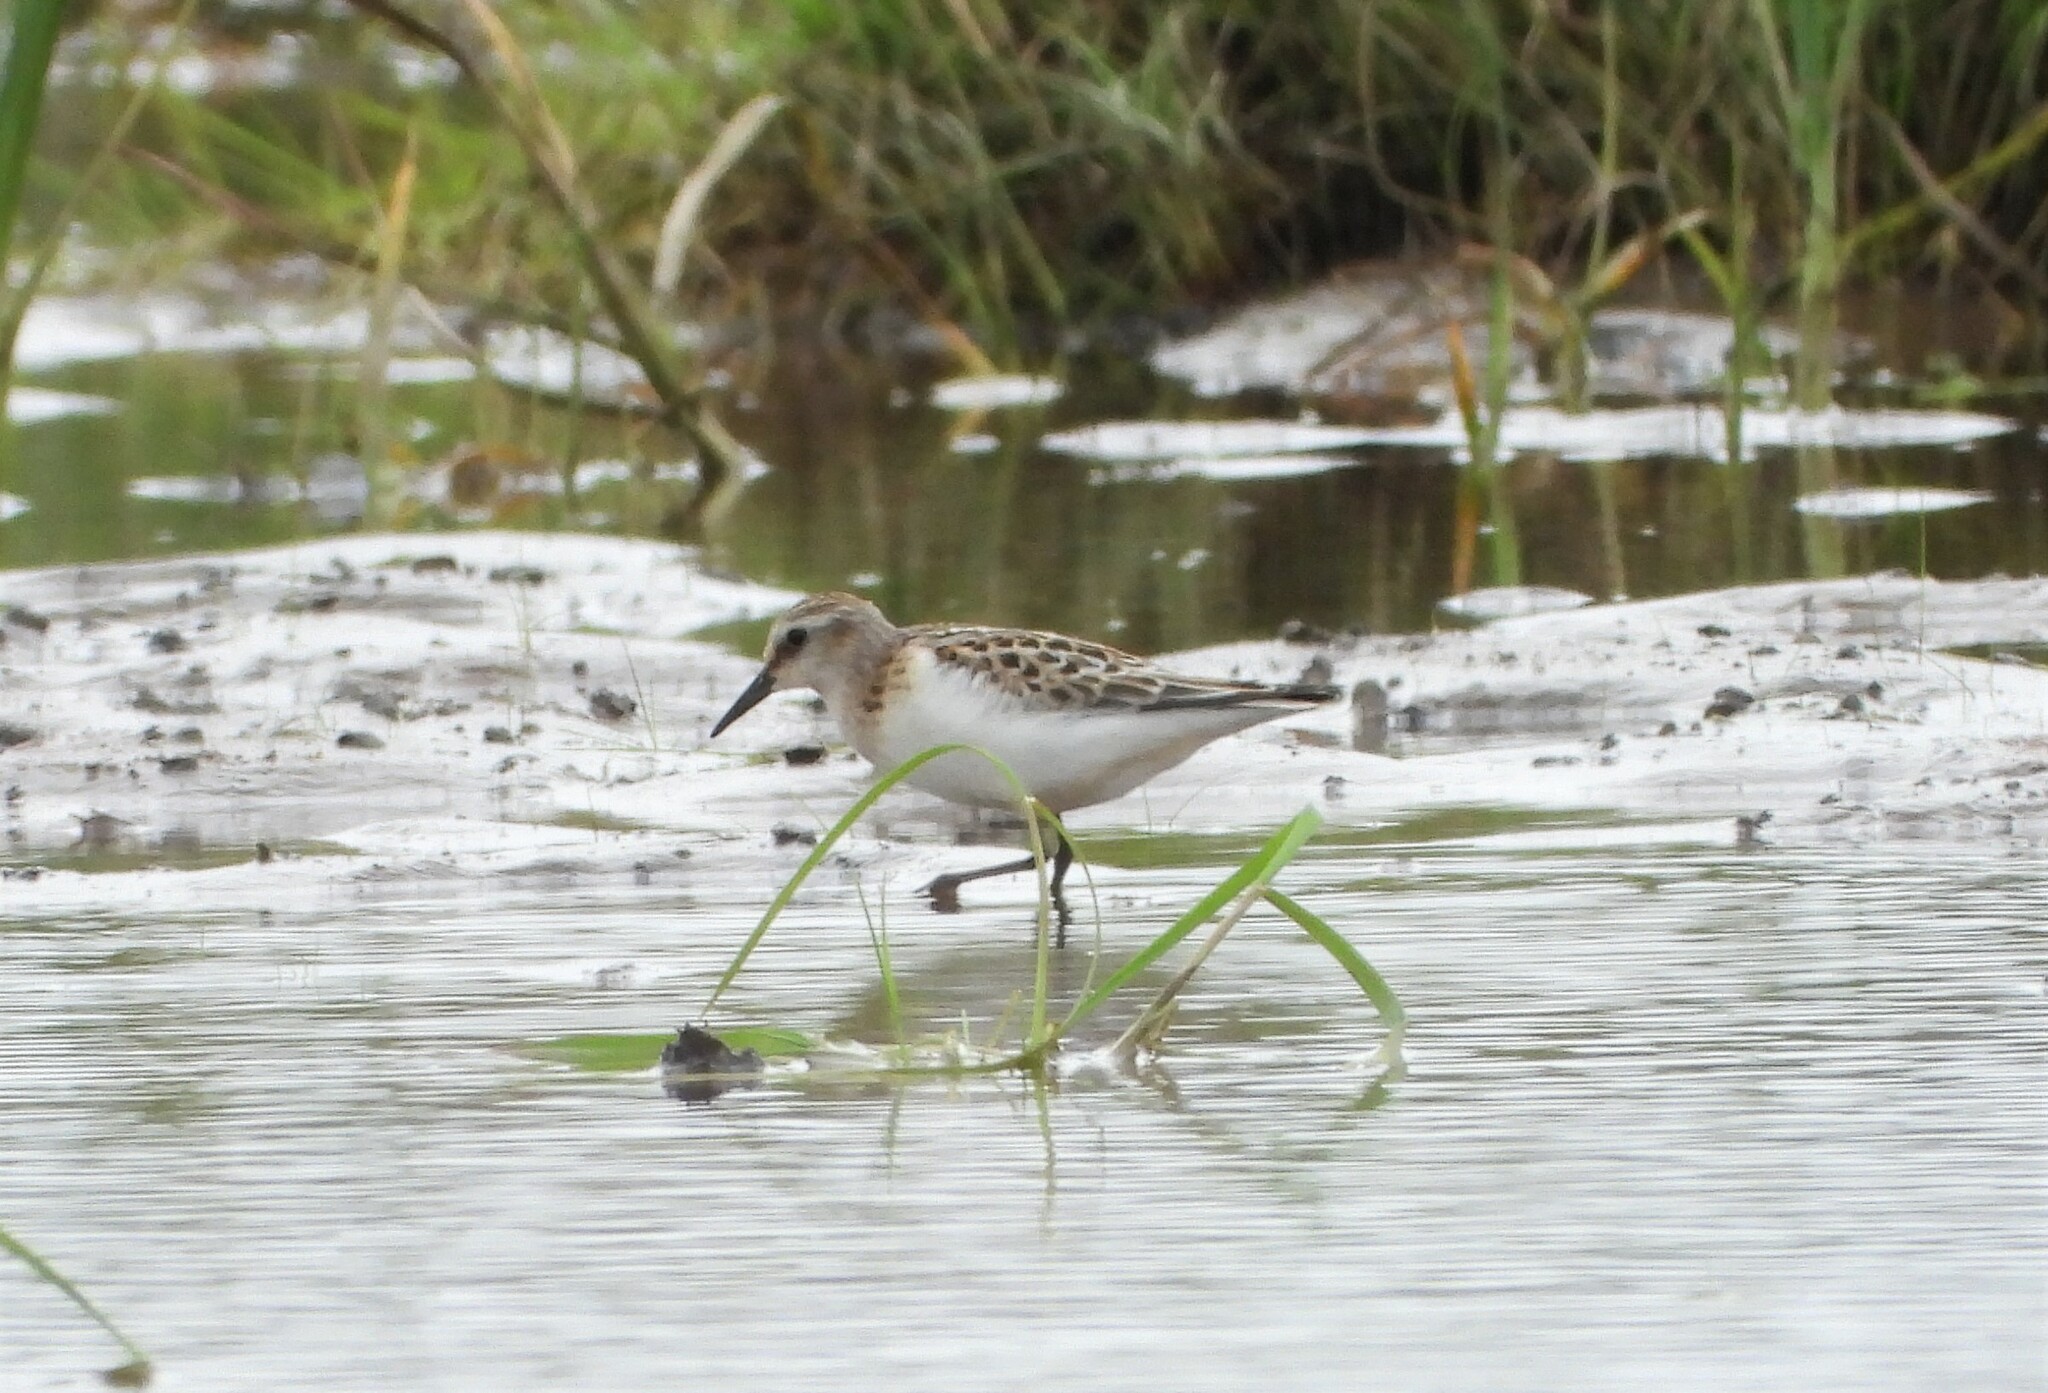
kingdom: Animalia
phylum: Chordata
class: Aves
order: Charadriiformes
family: Scolopacidae
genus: Calidris
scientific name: Calidris minuta
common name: Little stint
